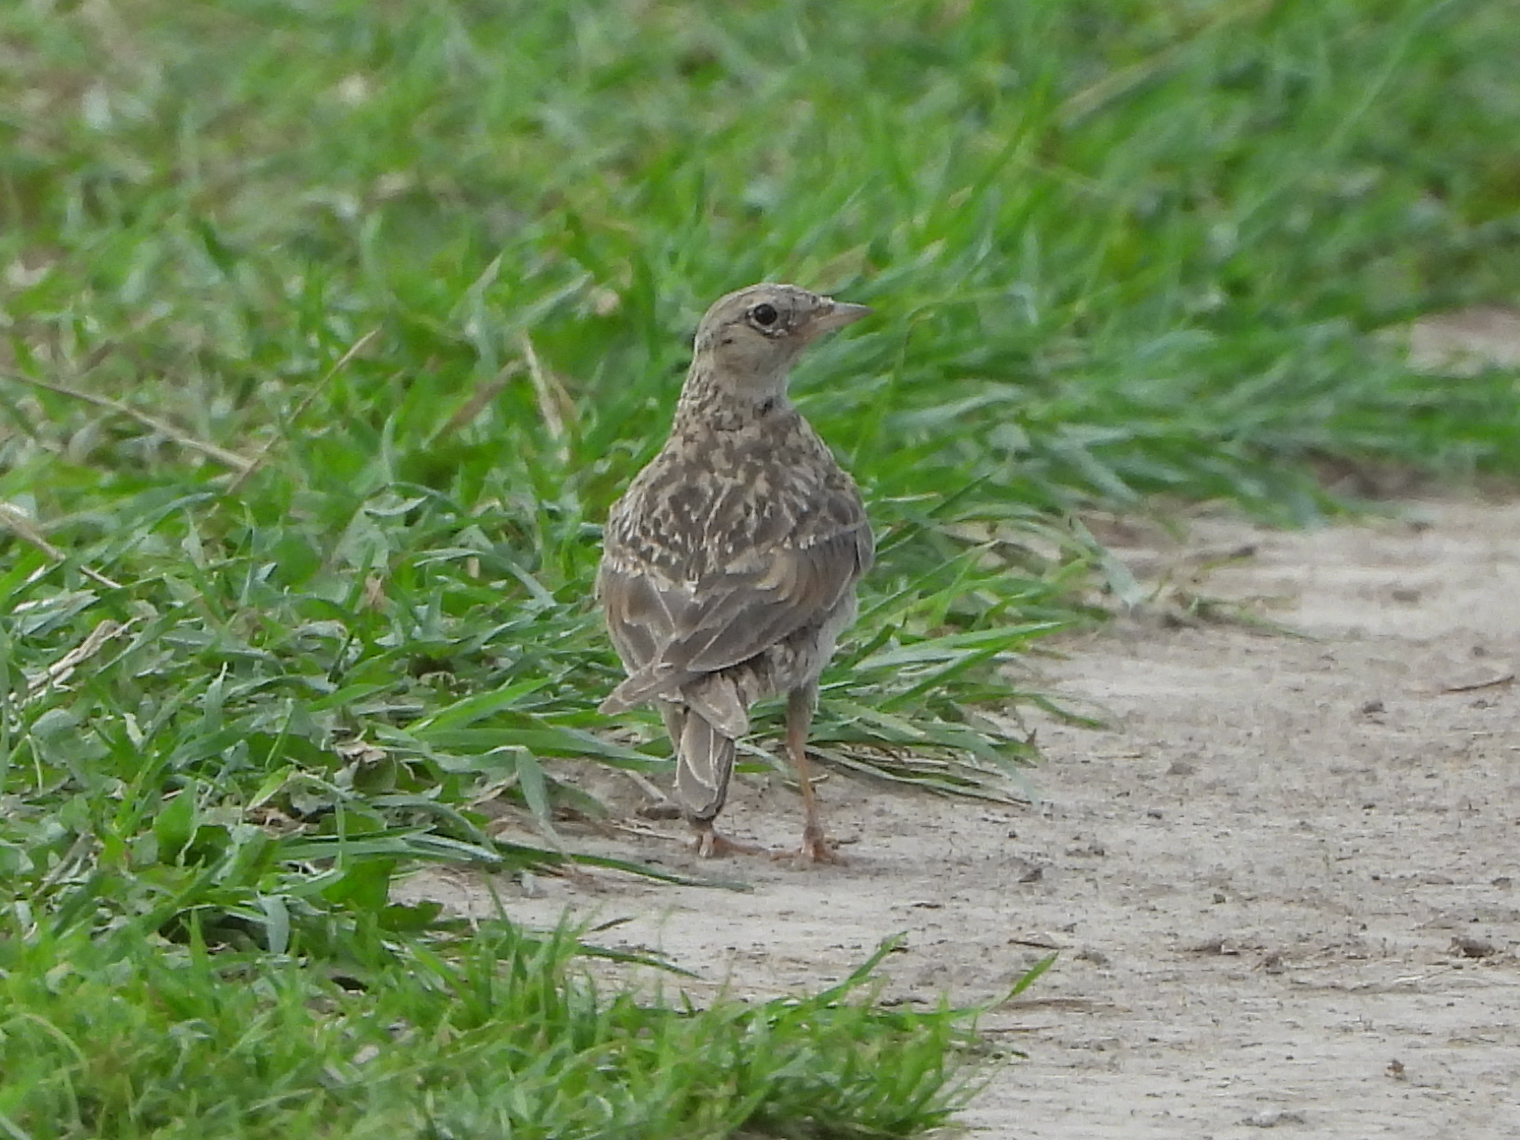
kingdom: Animalia
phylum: Chordata
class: Aves
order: Passeriformes
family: Alaudidae
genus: Alauda
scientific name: Alauda arvensis
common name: Eurasian skylark
